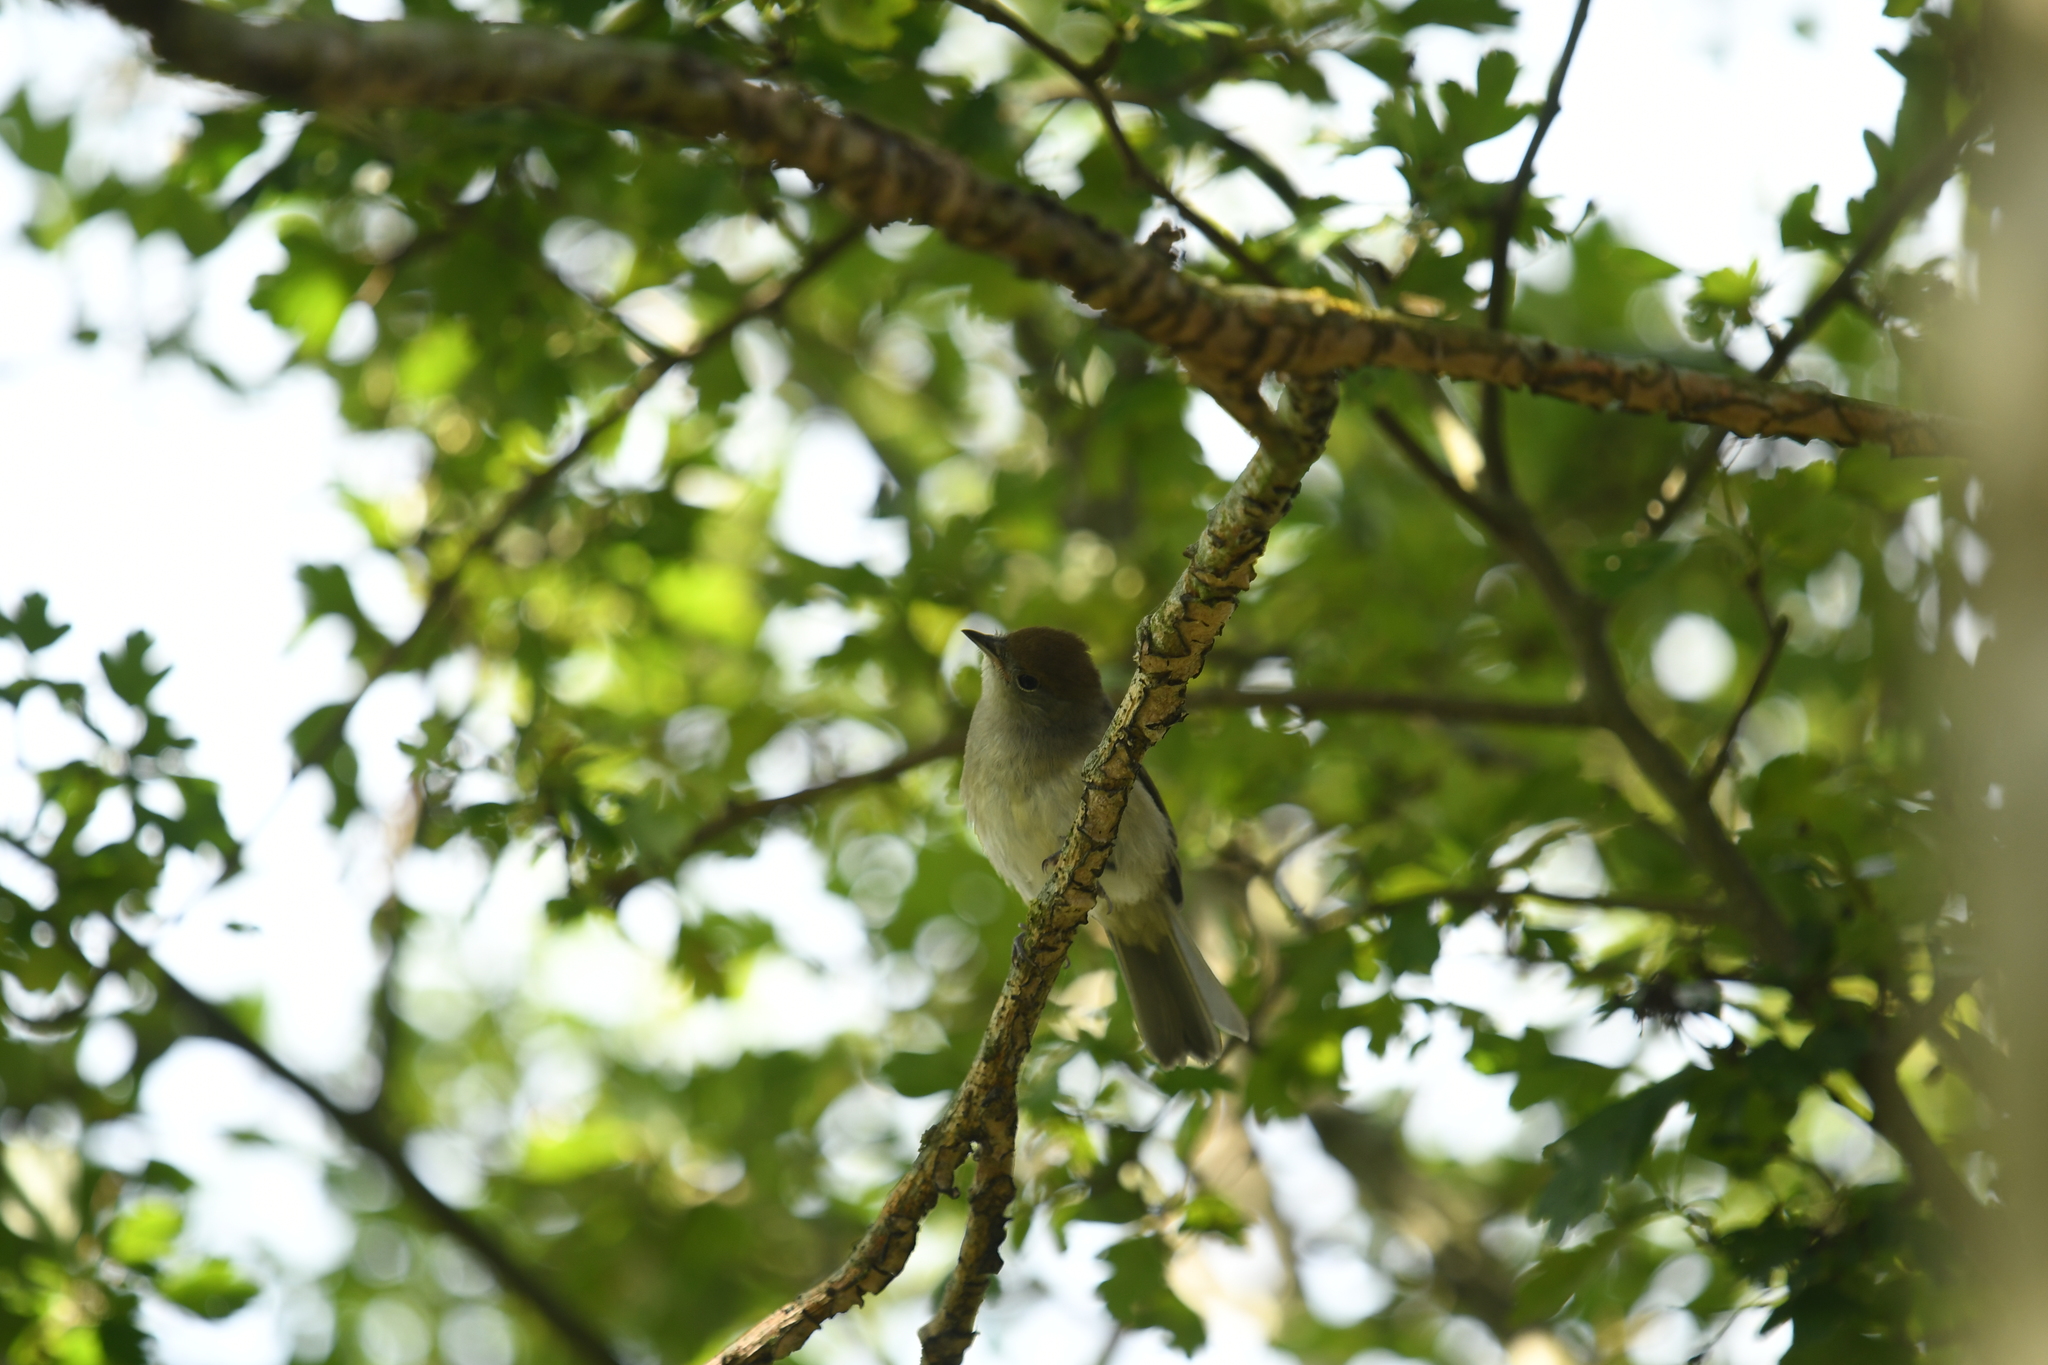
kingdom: Animalia
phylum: Chordata
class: Aves
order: Passeriformes
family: Sylviidae
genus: Sylvia
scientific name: Sylvia atricapilla
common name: Eurasian blackcap
